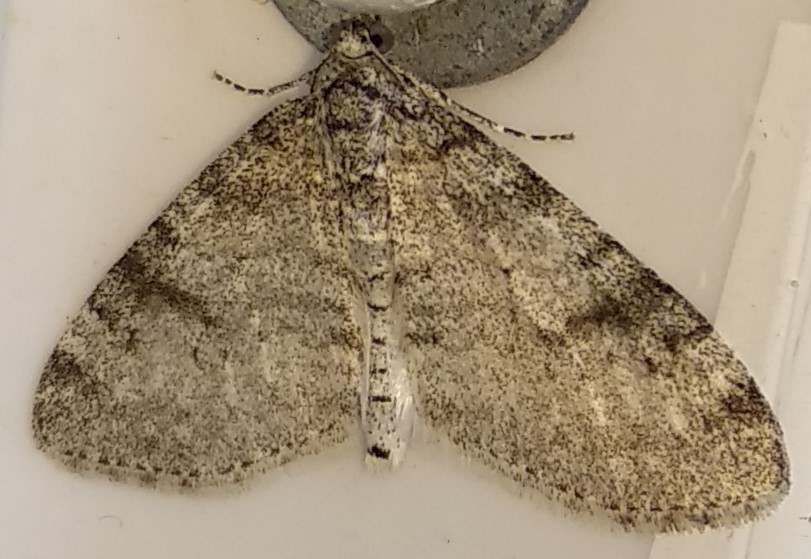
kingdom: Animalia
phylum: Arthropoda
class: Insecta
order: Lepidoptera
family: Geometridae
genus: Lobophora
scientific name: Lobophora nivigerata
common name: Powdered bigwing
